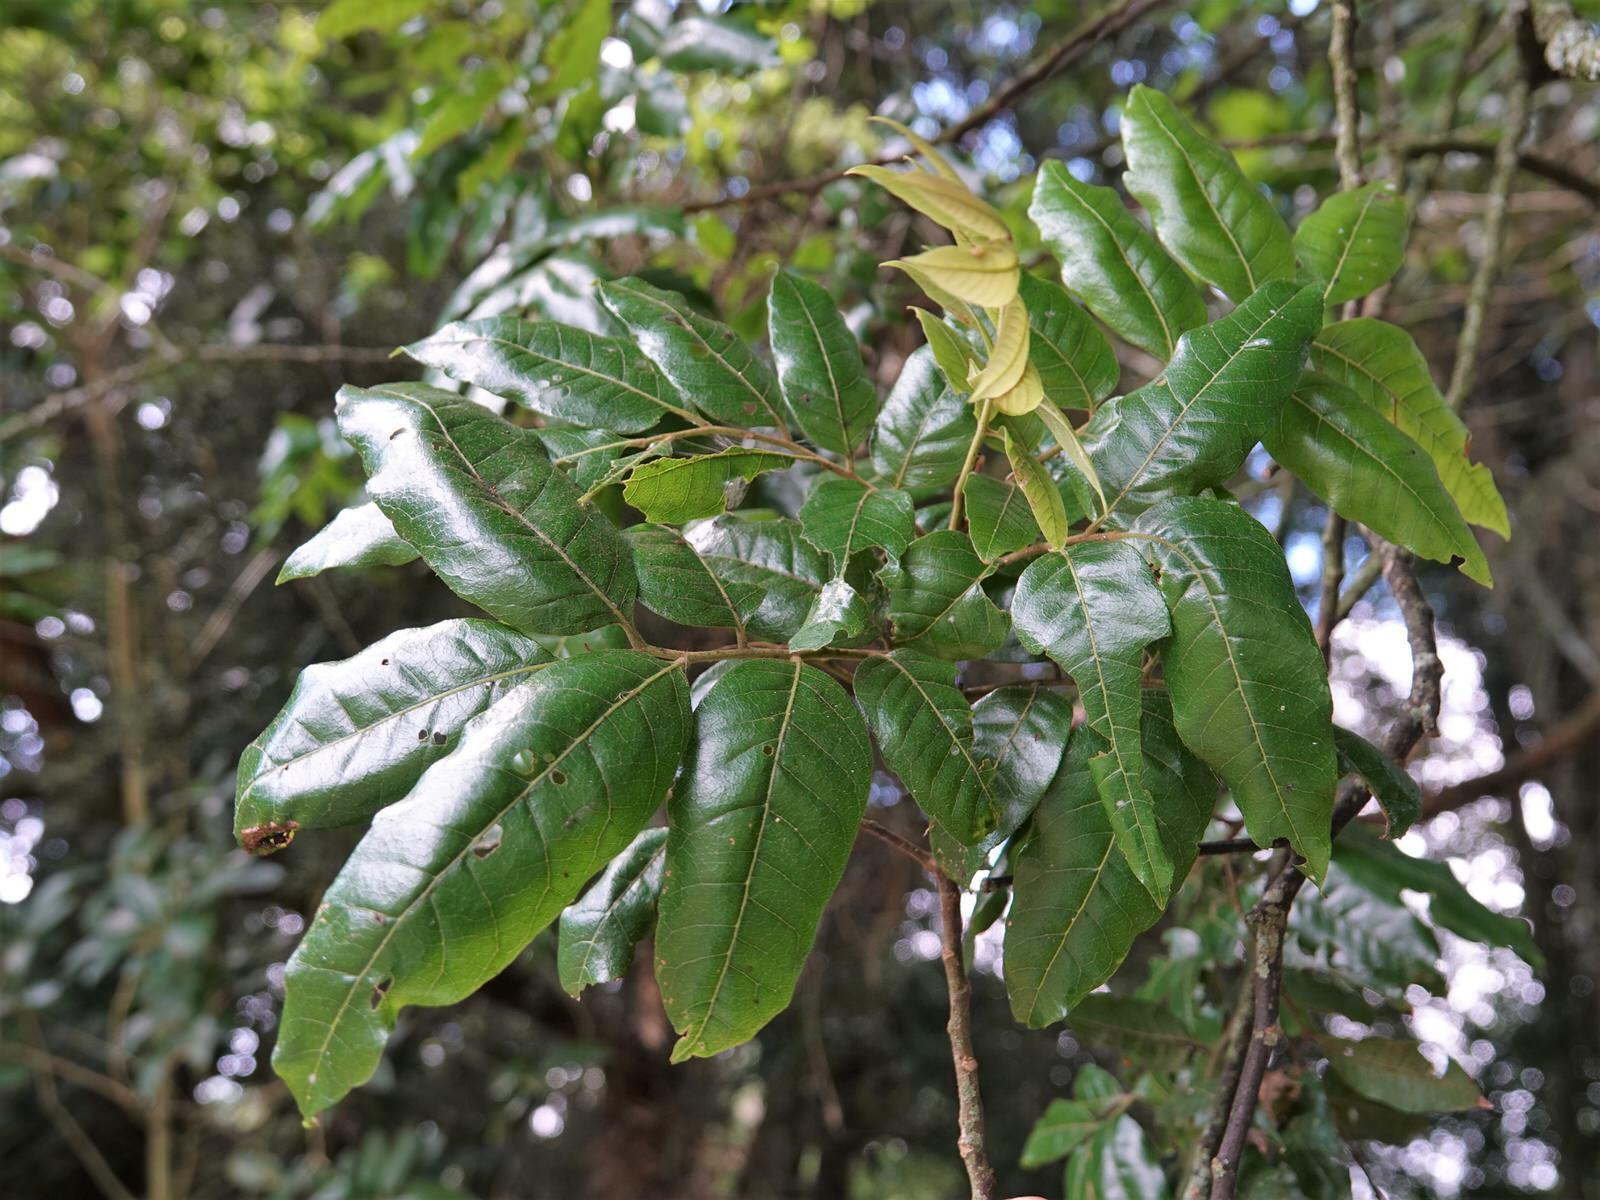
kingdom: Plantae
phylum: Tracheophyta
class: Magnoliopsida
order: Sapindales
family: Sapindaceae
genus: Alectryon
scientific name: Alectryon excelsus
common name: Three kings titoki
